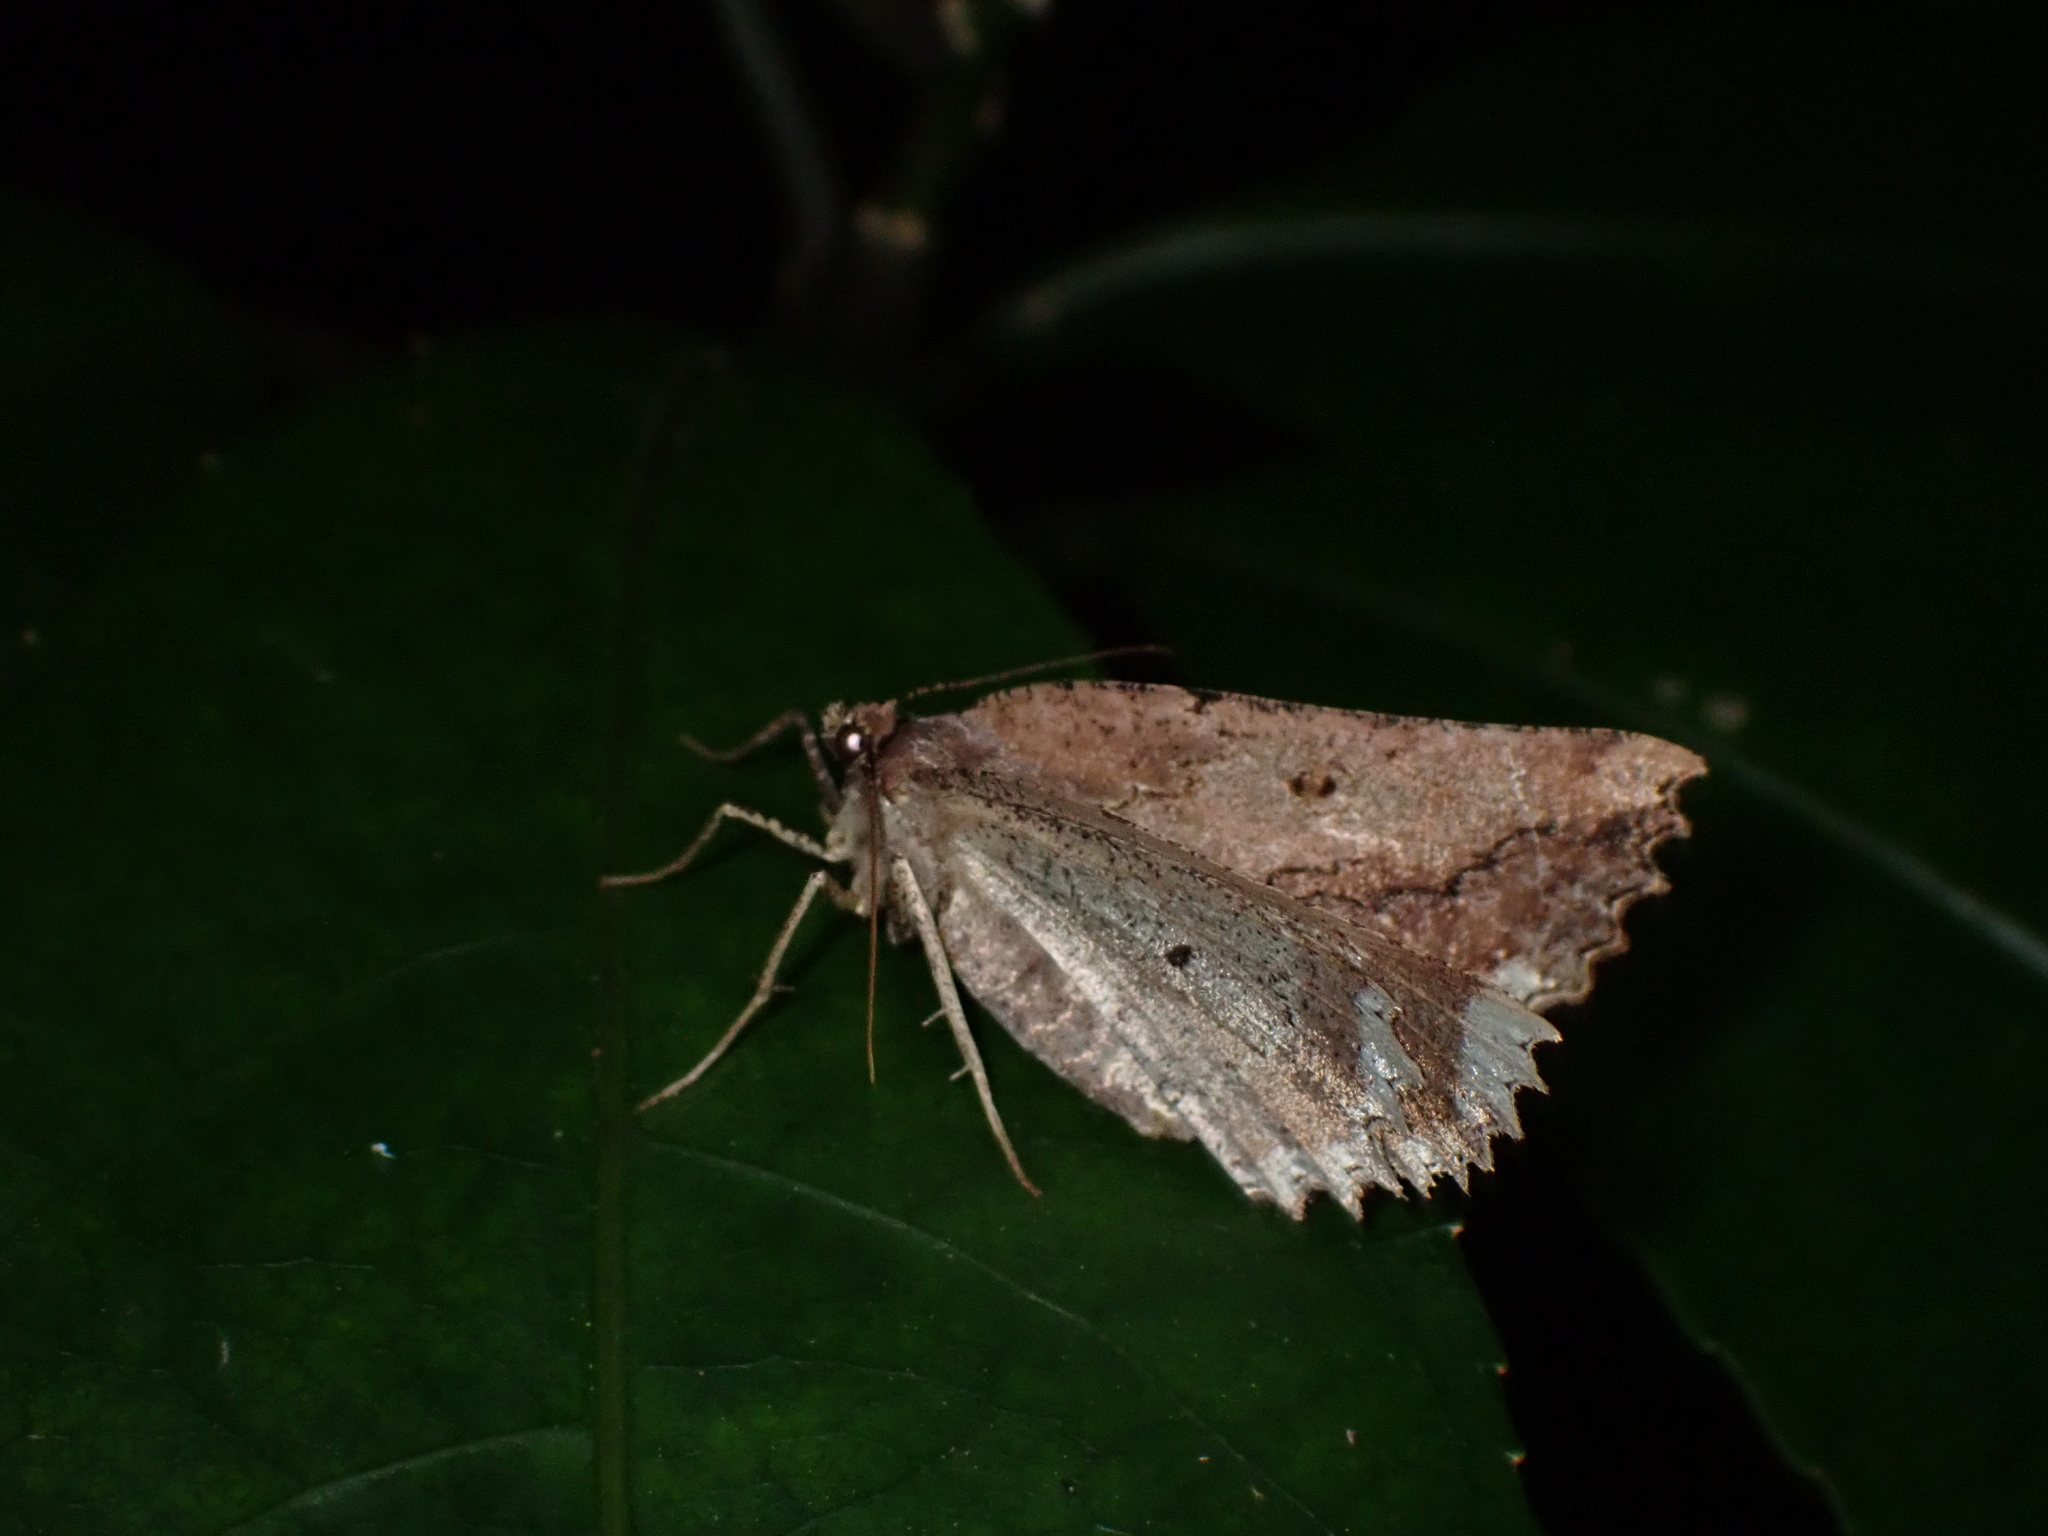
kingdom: Animalia
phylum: Arthropoda
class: Insecta
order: Lepidoptera
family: Geometridae
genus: Gellonia
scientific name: Gellonia pannularia
